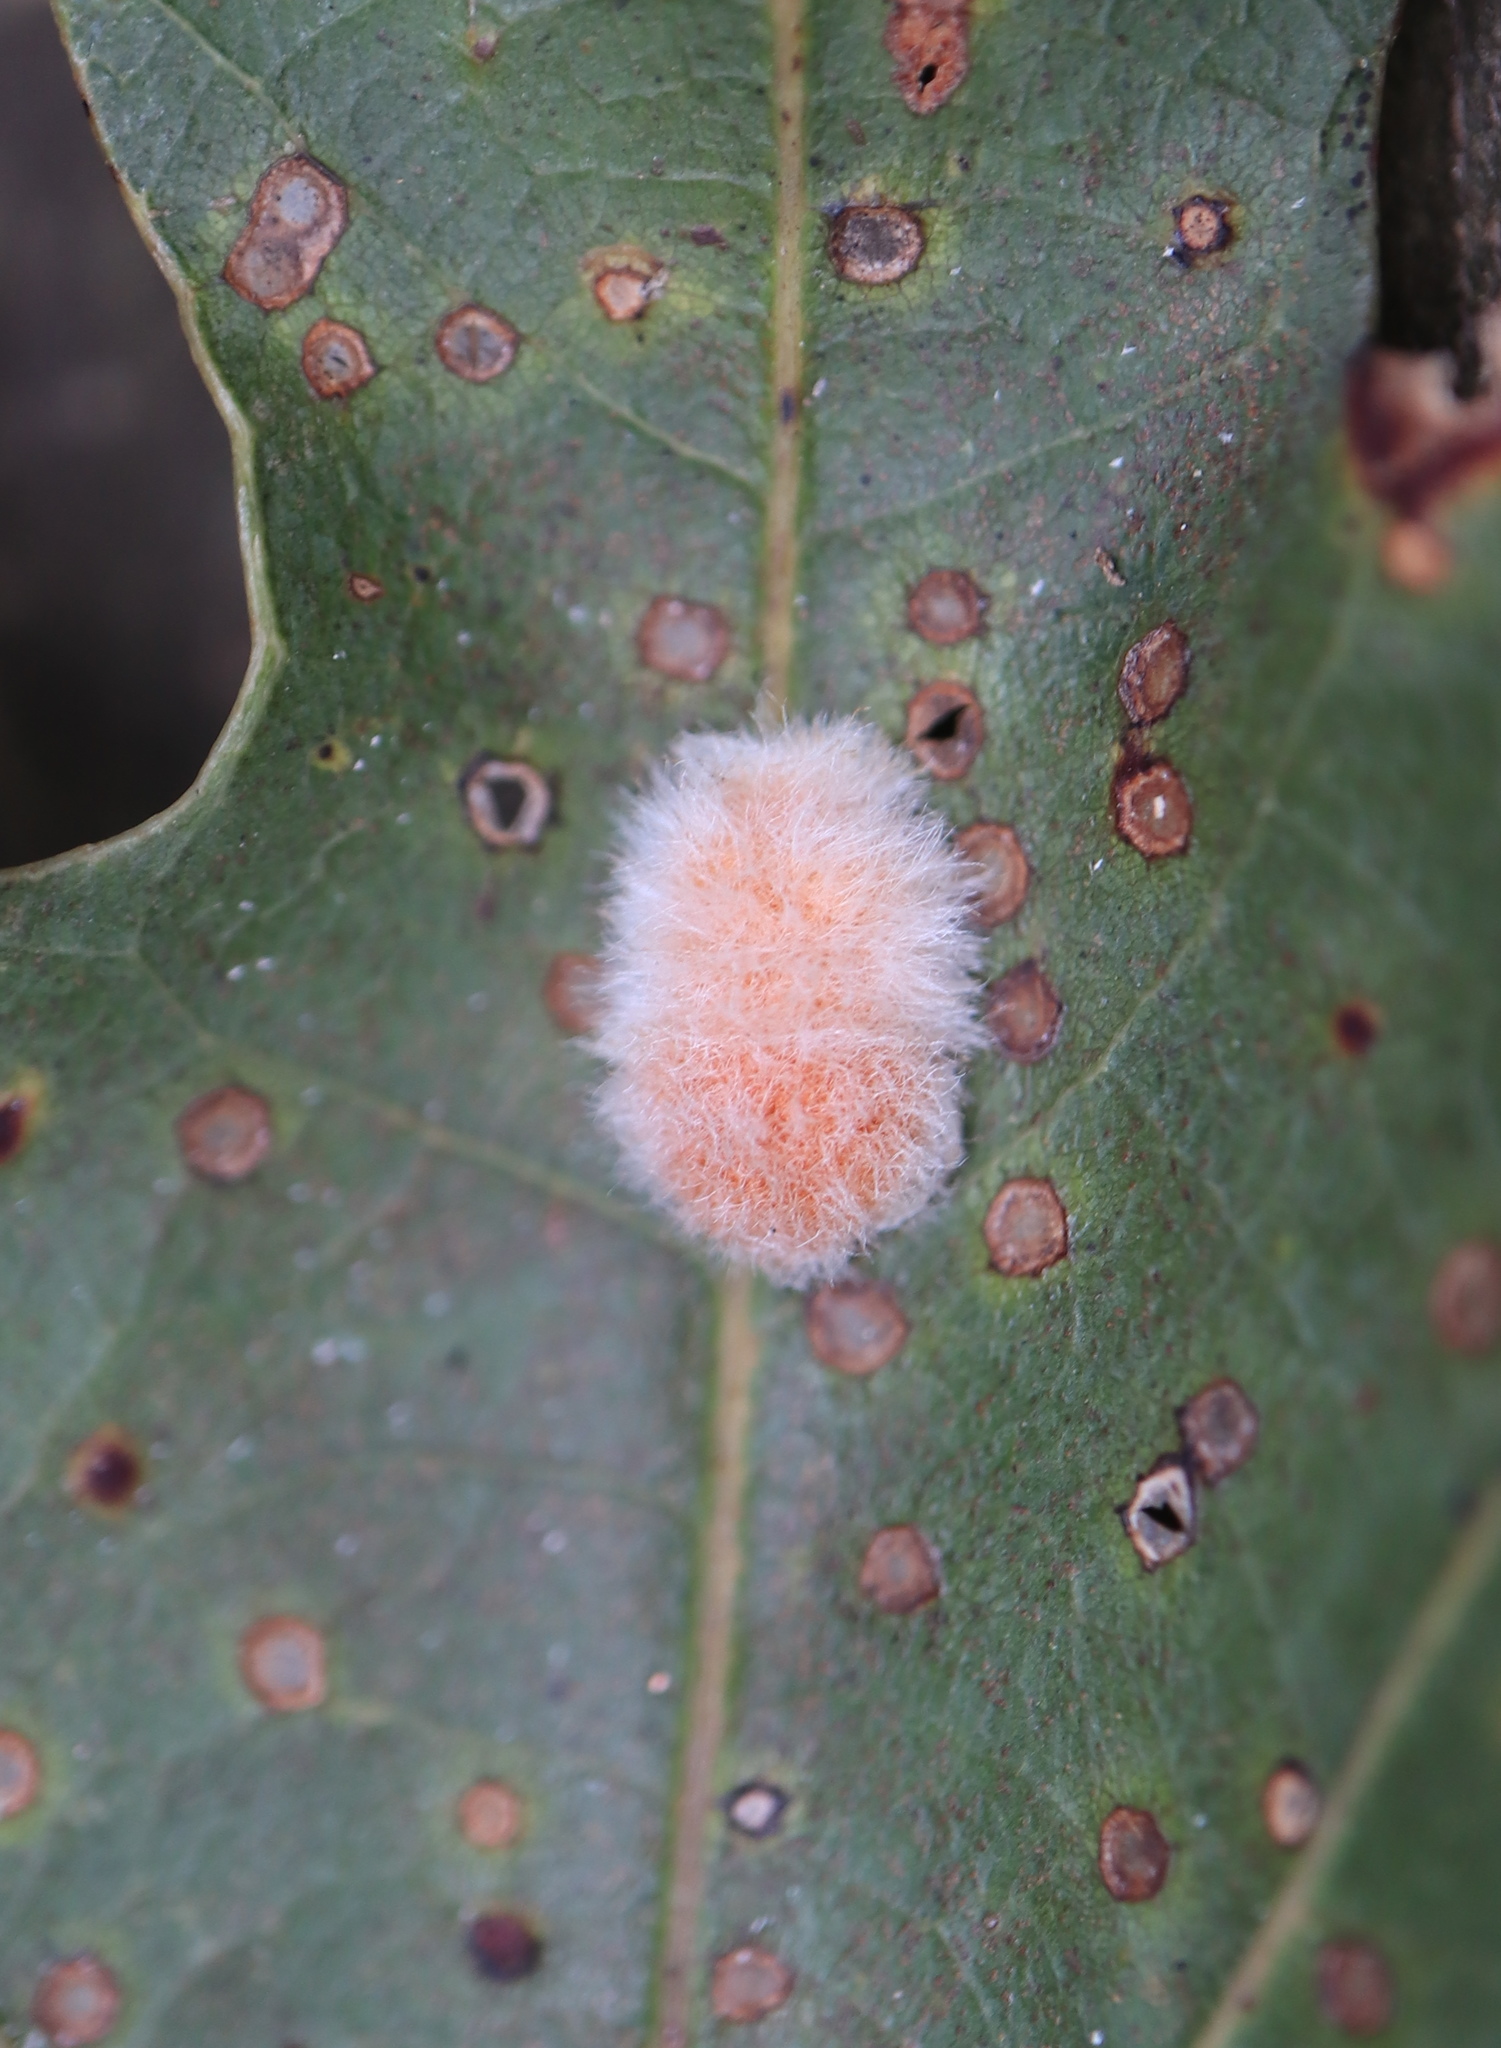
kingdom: Animalia
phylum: Arthropoda
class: Insecta
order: Hymenoptera
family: Cynipidae
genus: Andricus
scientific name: Andricus quercusflocci
